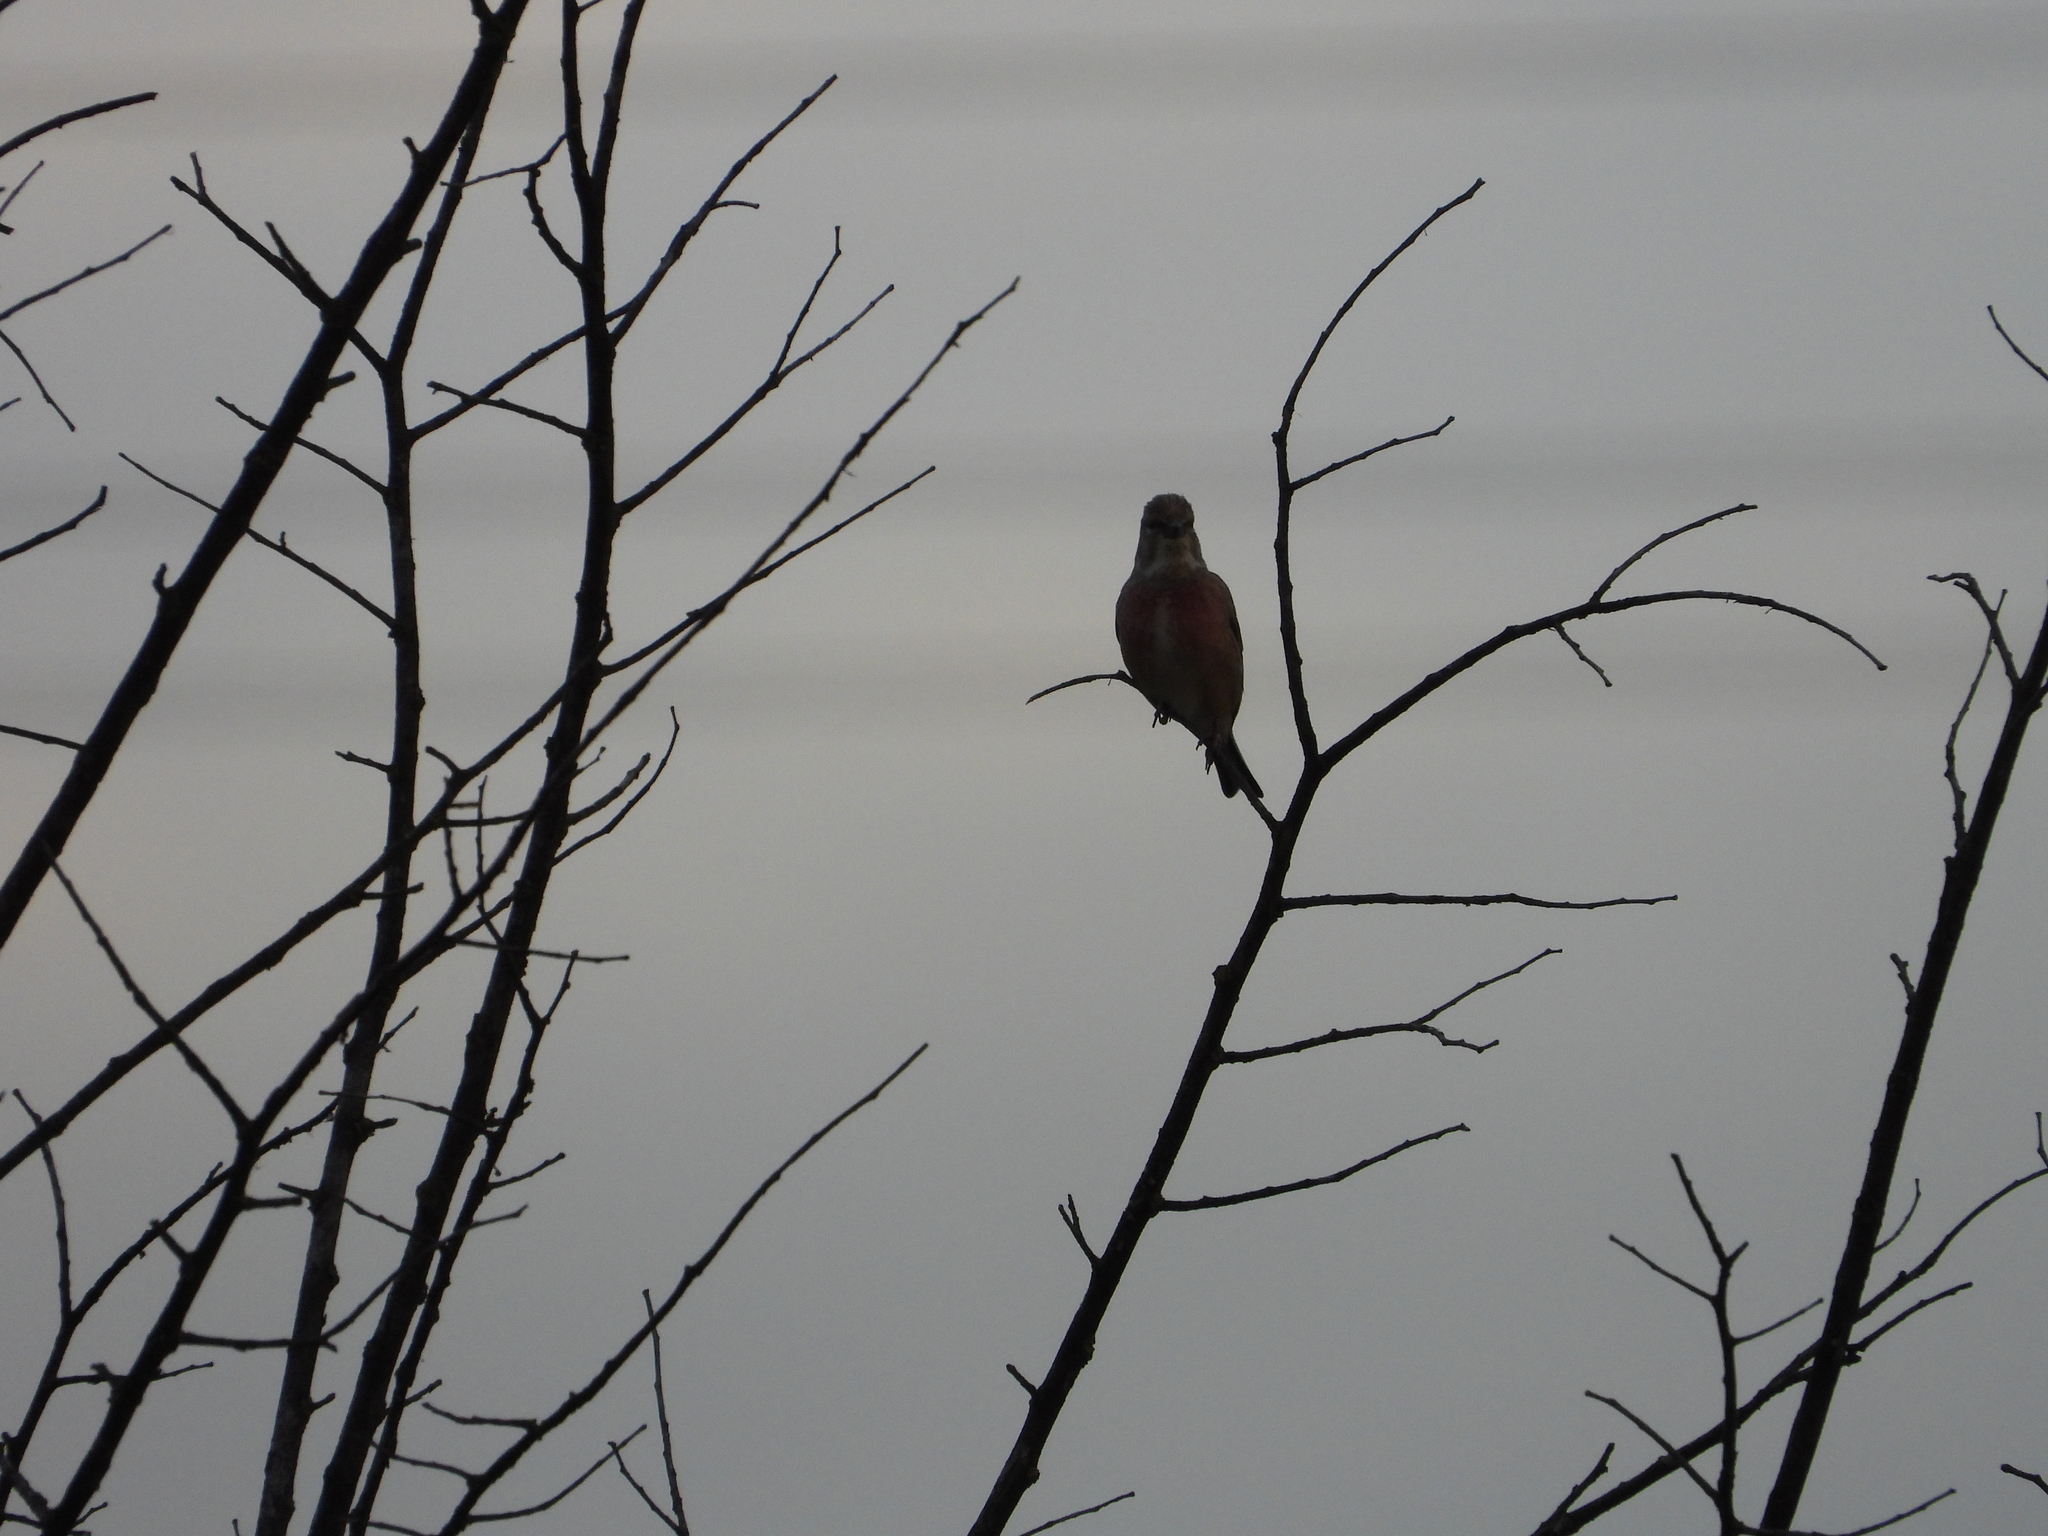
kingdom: Animalia
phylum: Chordata
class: Aves
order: Passeriformes
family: Fringillidae
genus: Linaria
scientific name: Linaria cannabina
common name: Common linnet
